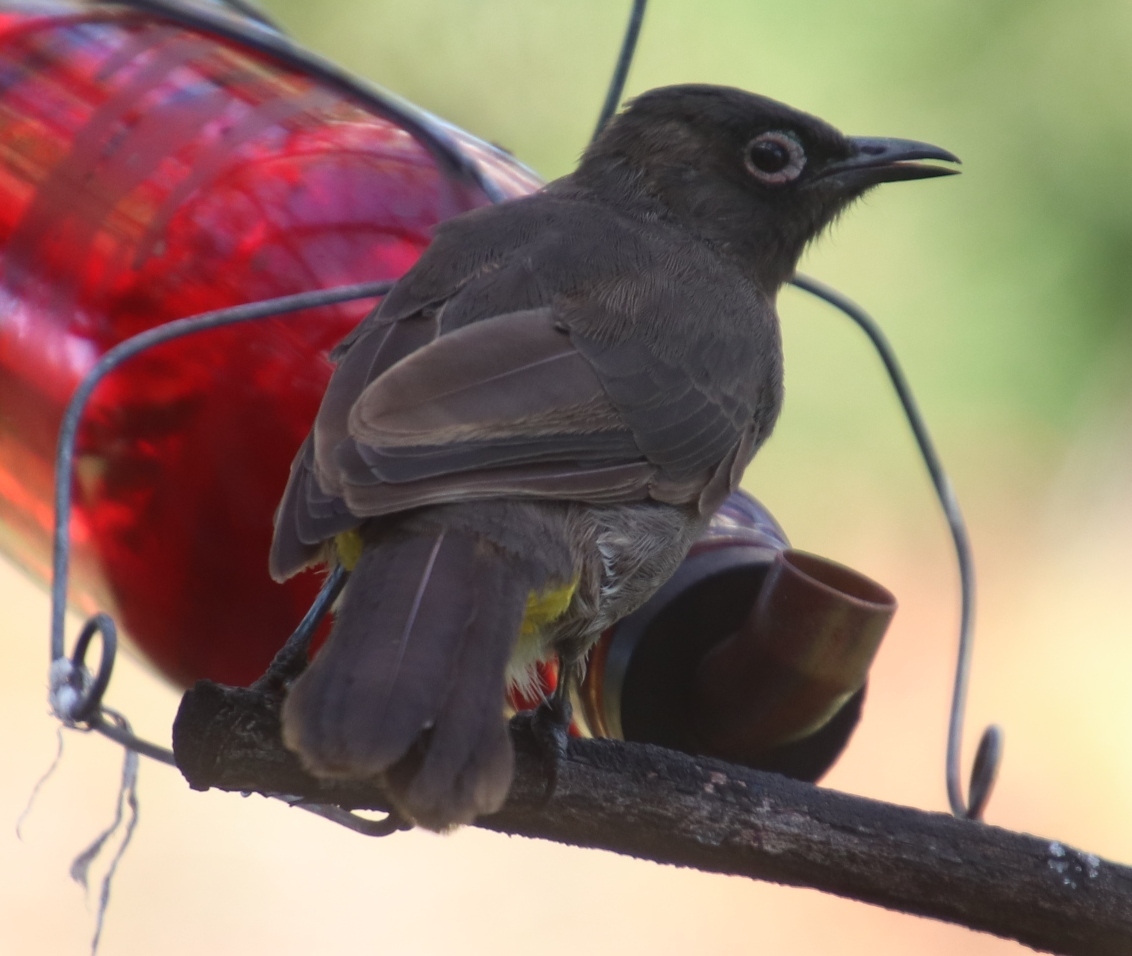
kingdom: Animalia
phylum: Chordata
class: Aves
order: Passeriformes
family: Pycnonotidae
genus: Pycnonotus
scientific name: Pycnonotus capensis
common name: Cape bulbul
